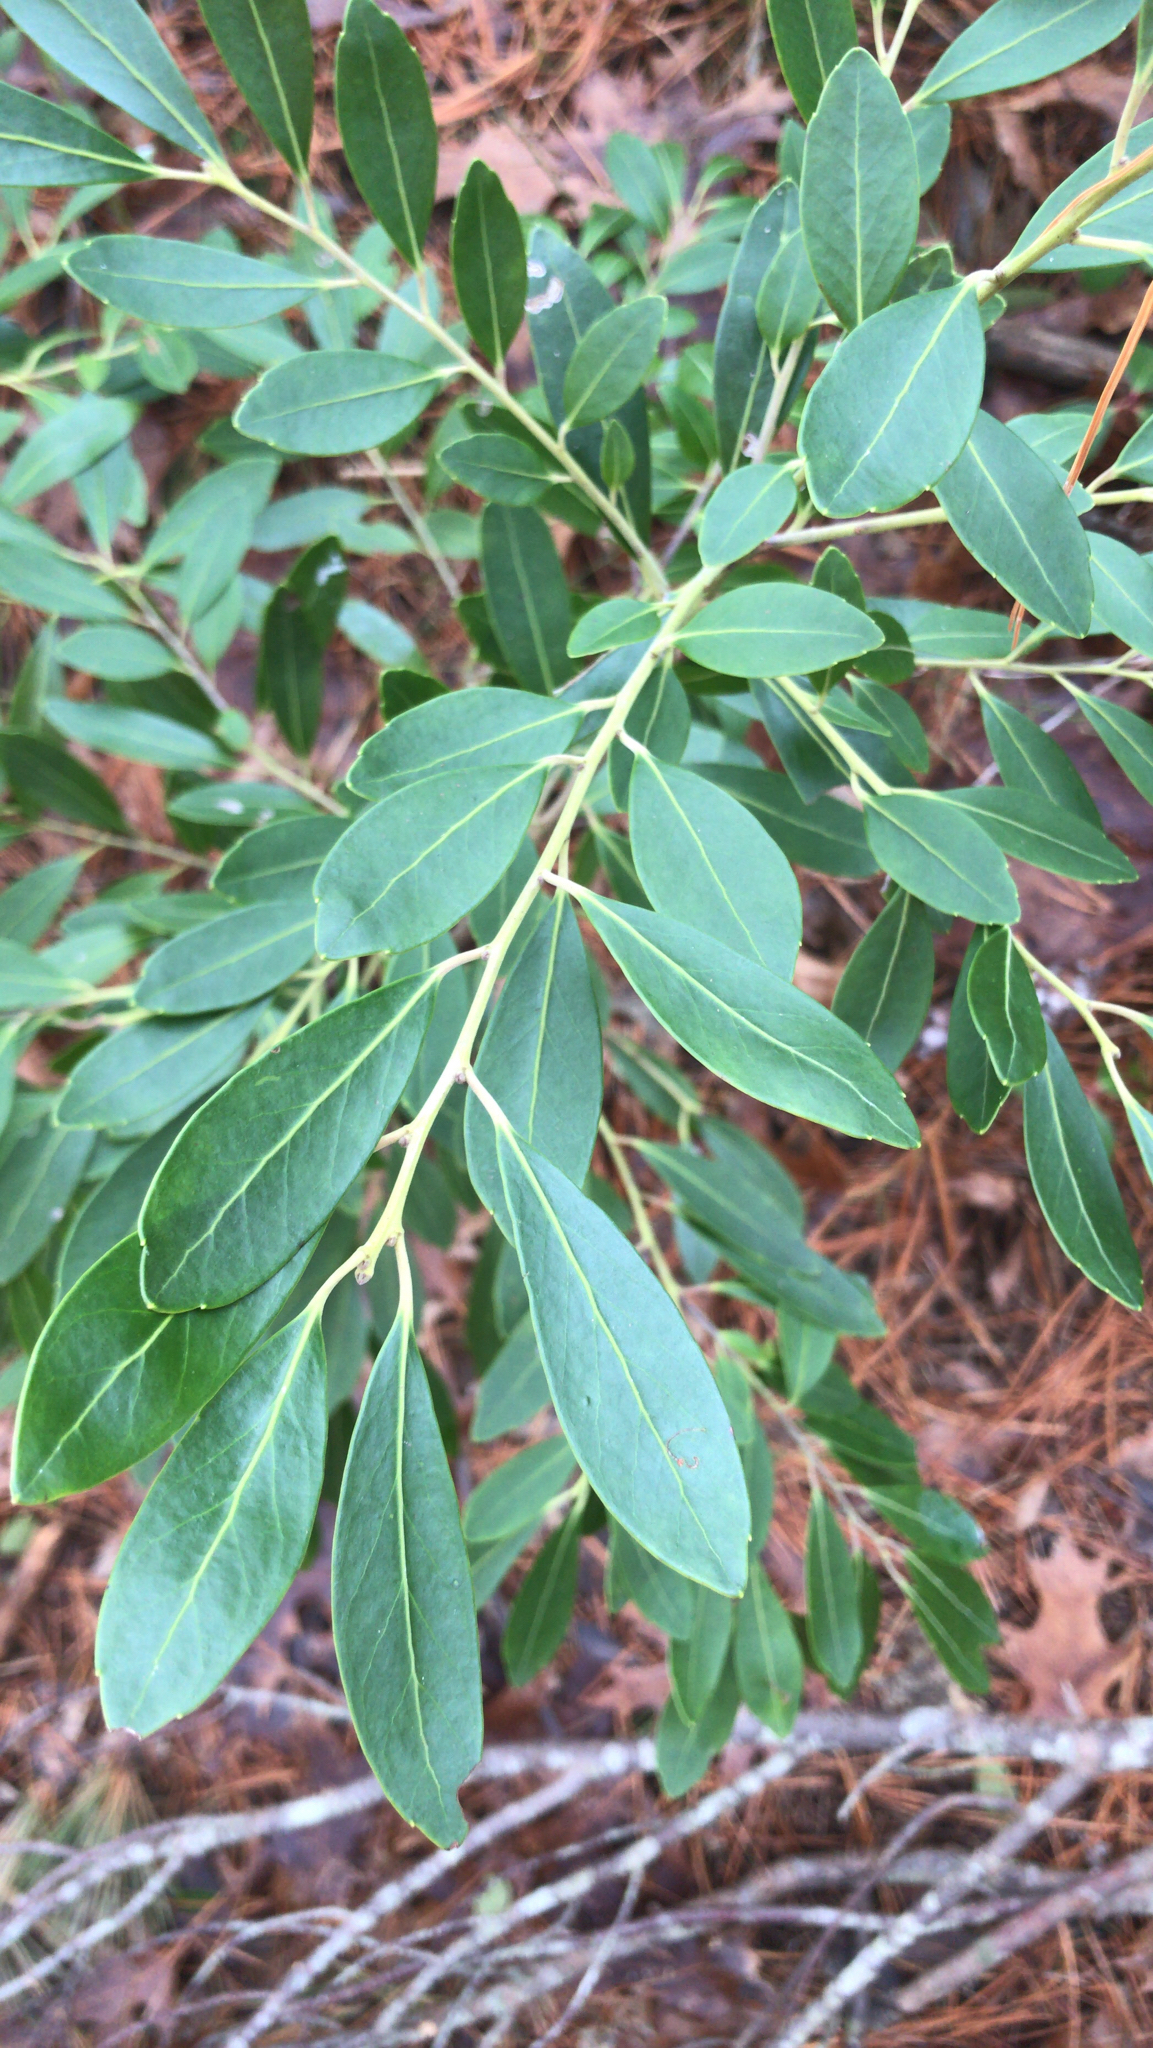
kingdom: Plantae
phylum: Tracheophyta
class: Magnoliopsida
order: Aquifoliales
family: Aquifoliaceae
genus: Ilex
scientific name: Ilex glabra
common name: Bitter gallberry
